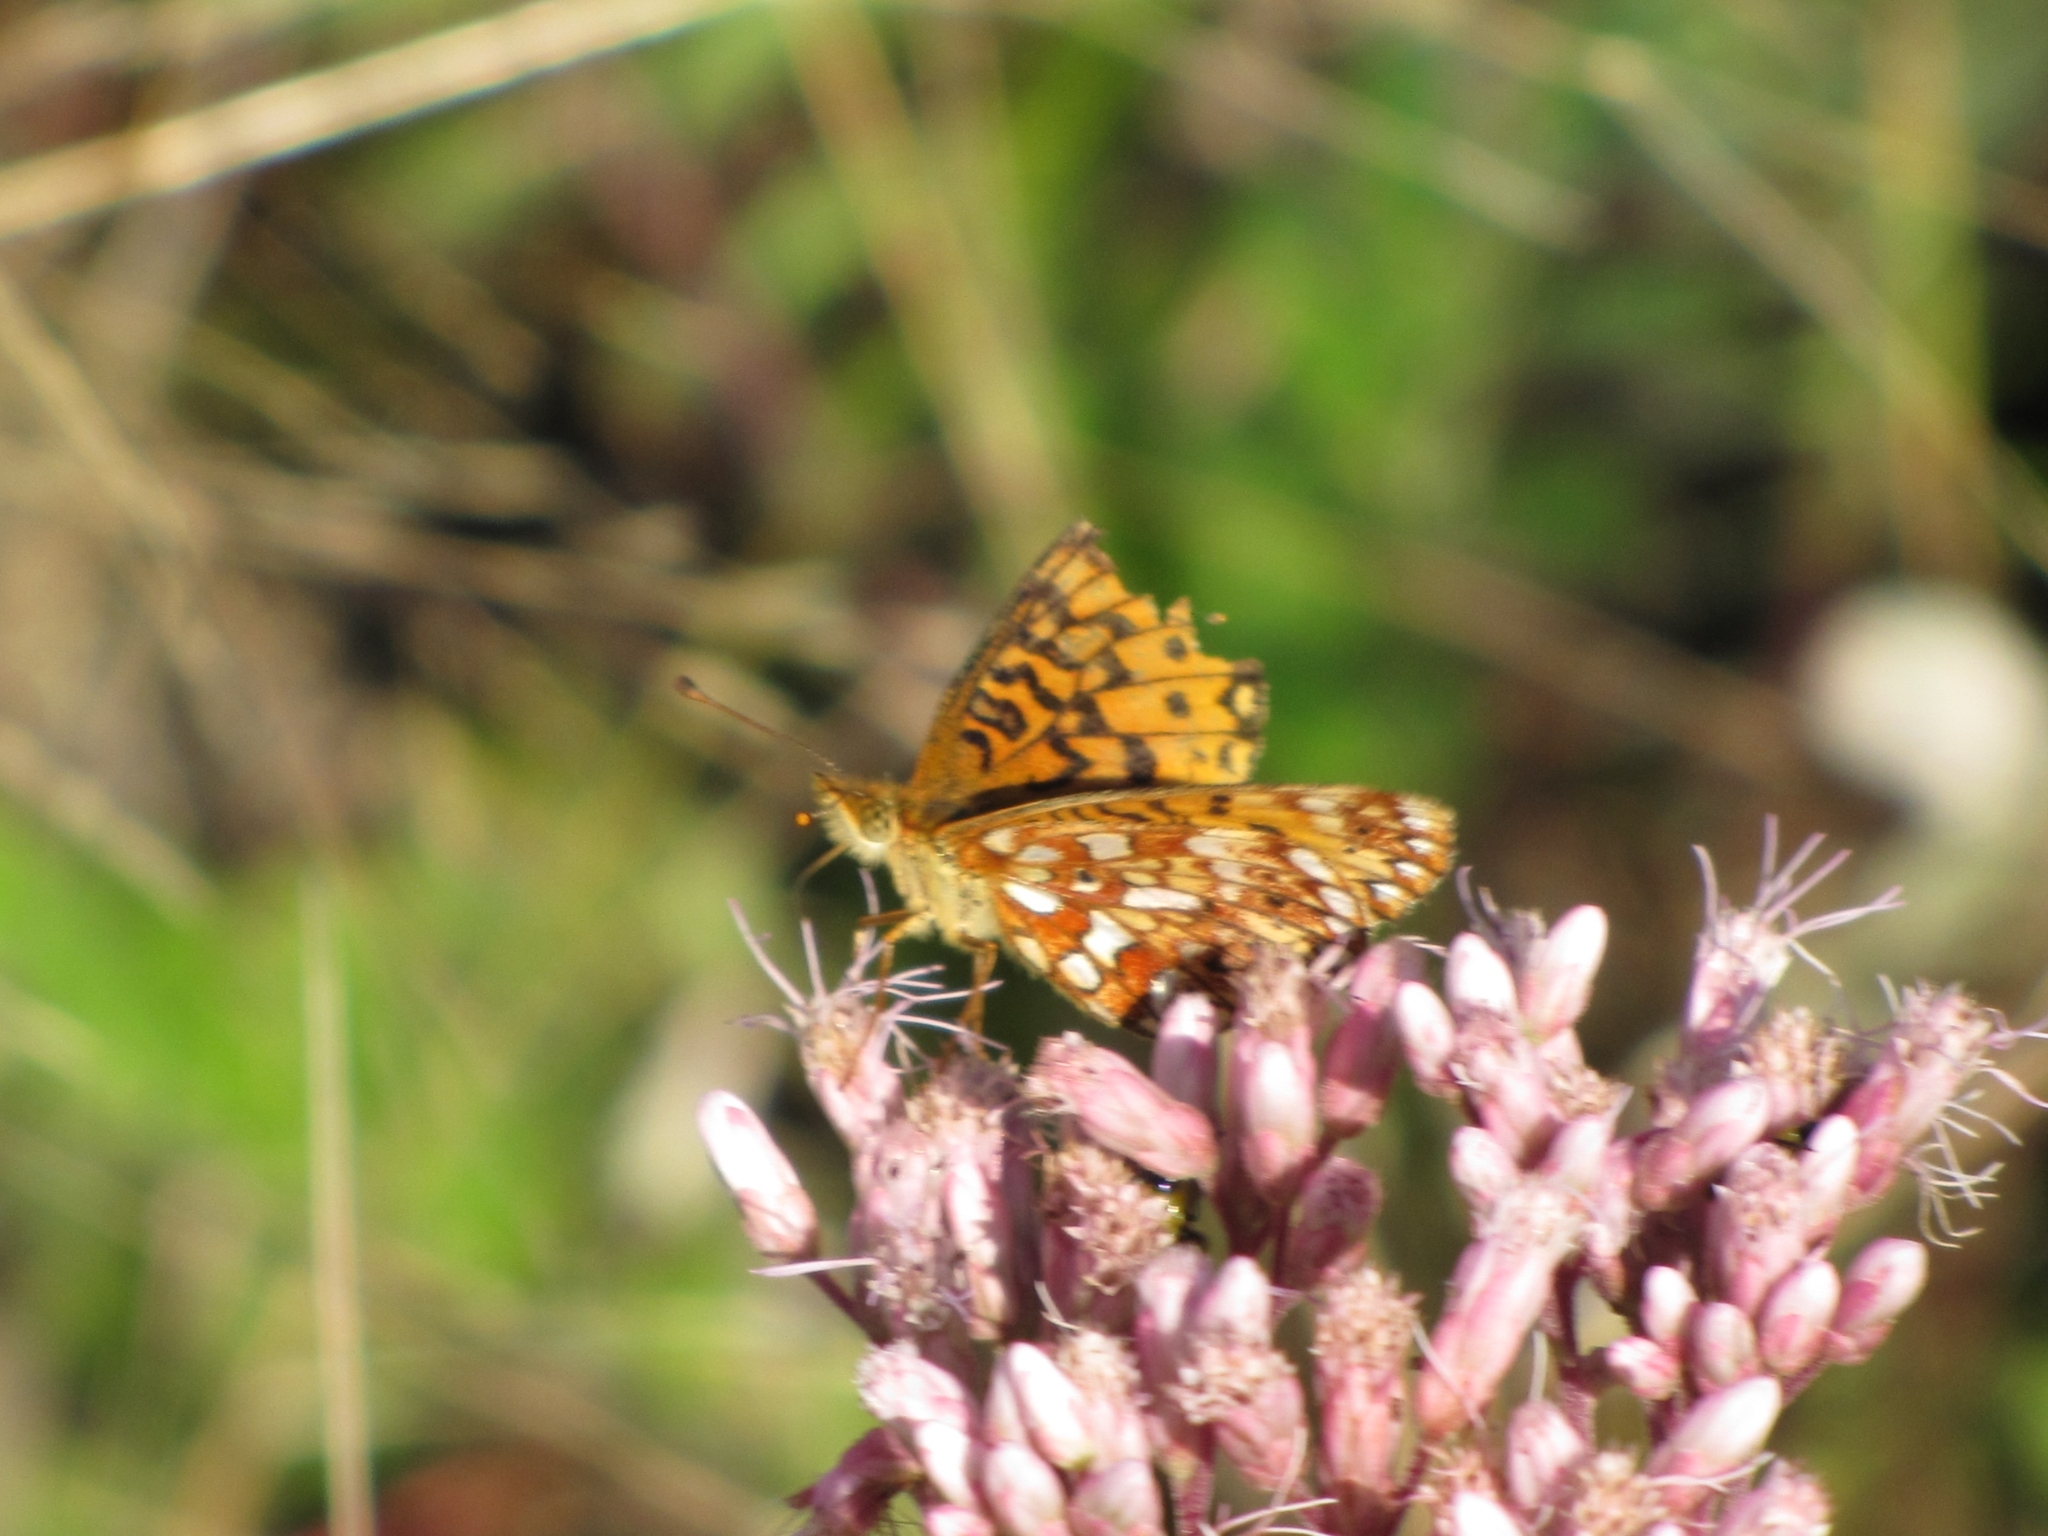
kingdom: Animalia
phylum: Arthropoda
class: Insecta
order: Lepidoptera
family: Nymphalidae
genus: Boloria
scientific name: Boloria
